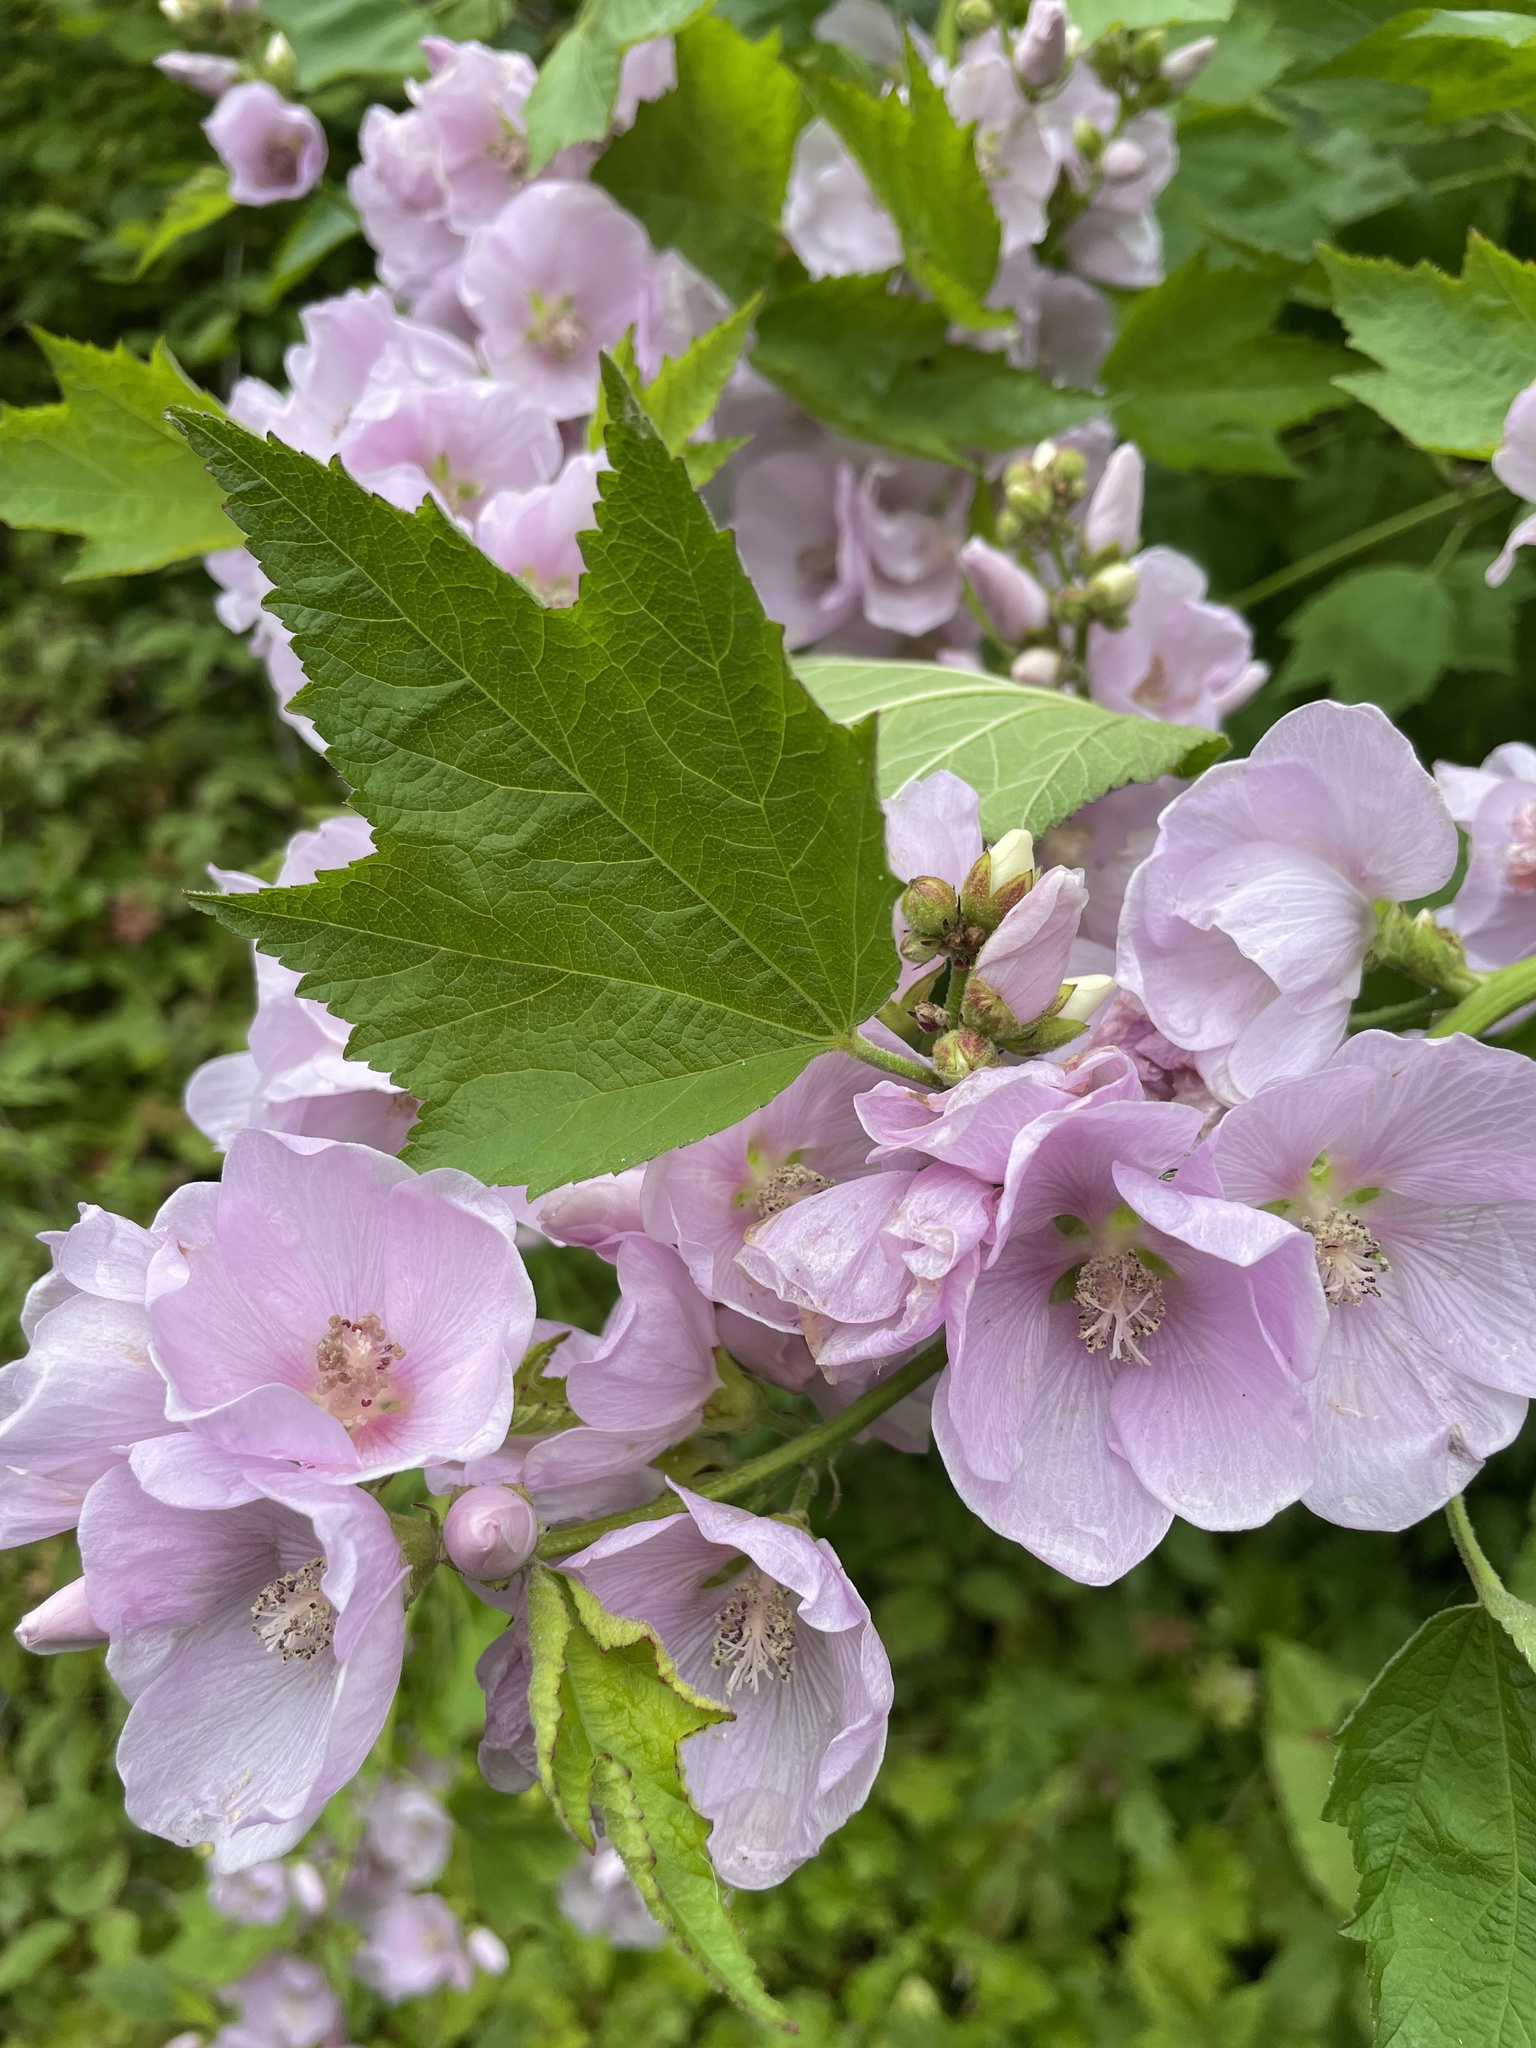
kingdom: Plantae
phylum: Tracheophyta
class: Magnoliopsida
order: Malvales
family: Malvaceae
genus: Iliamna
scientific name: Iliamna rivularis
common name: Wild hollyhock
